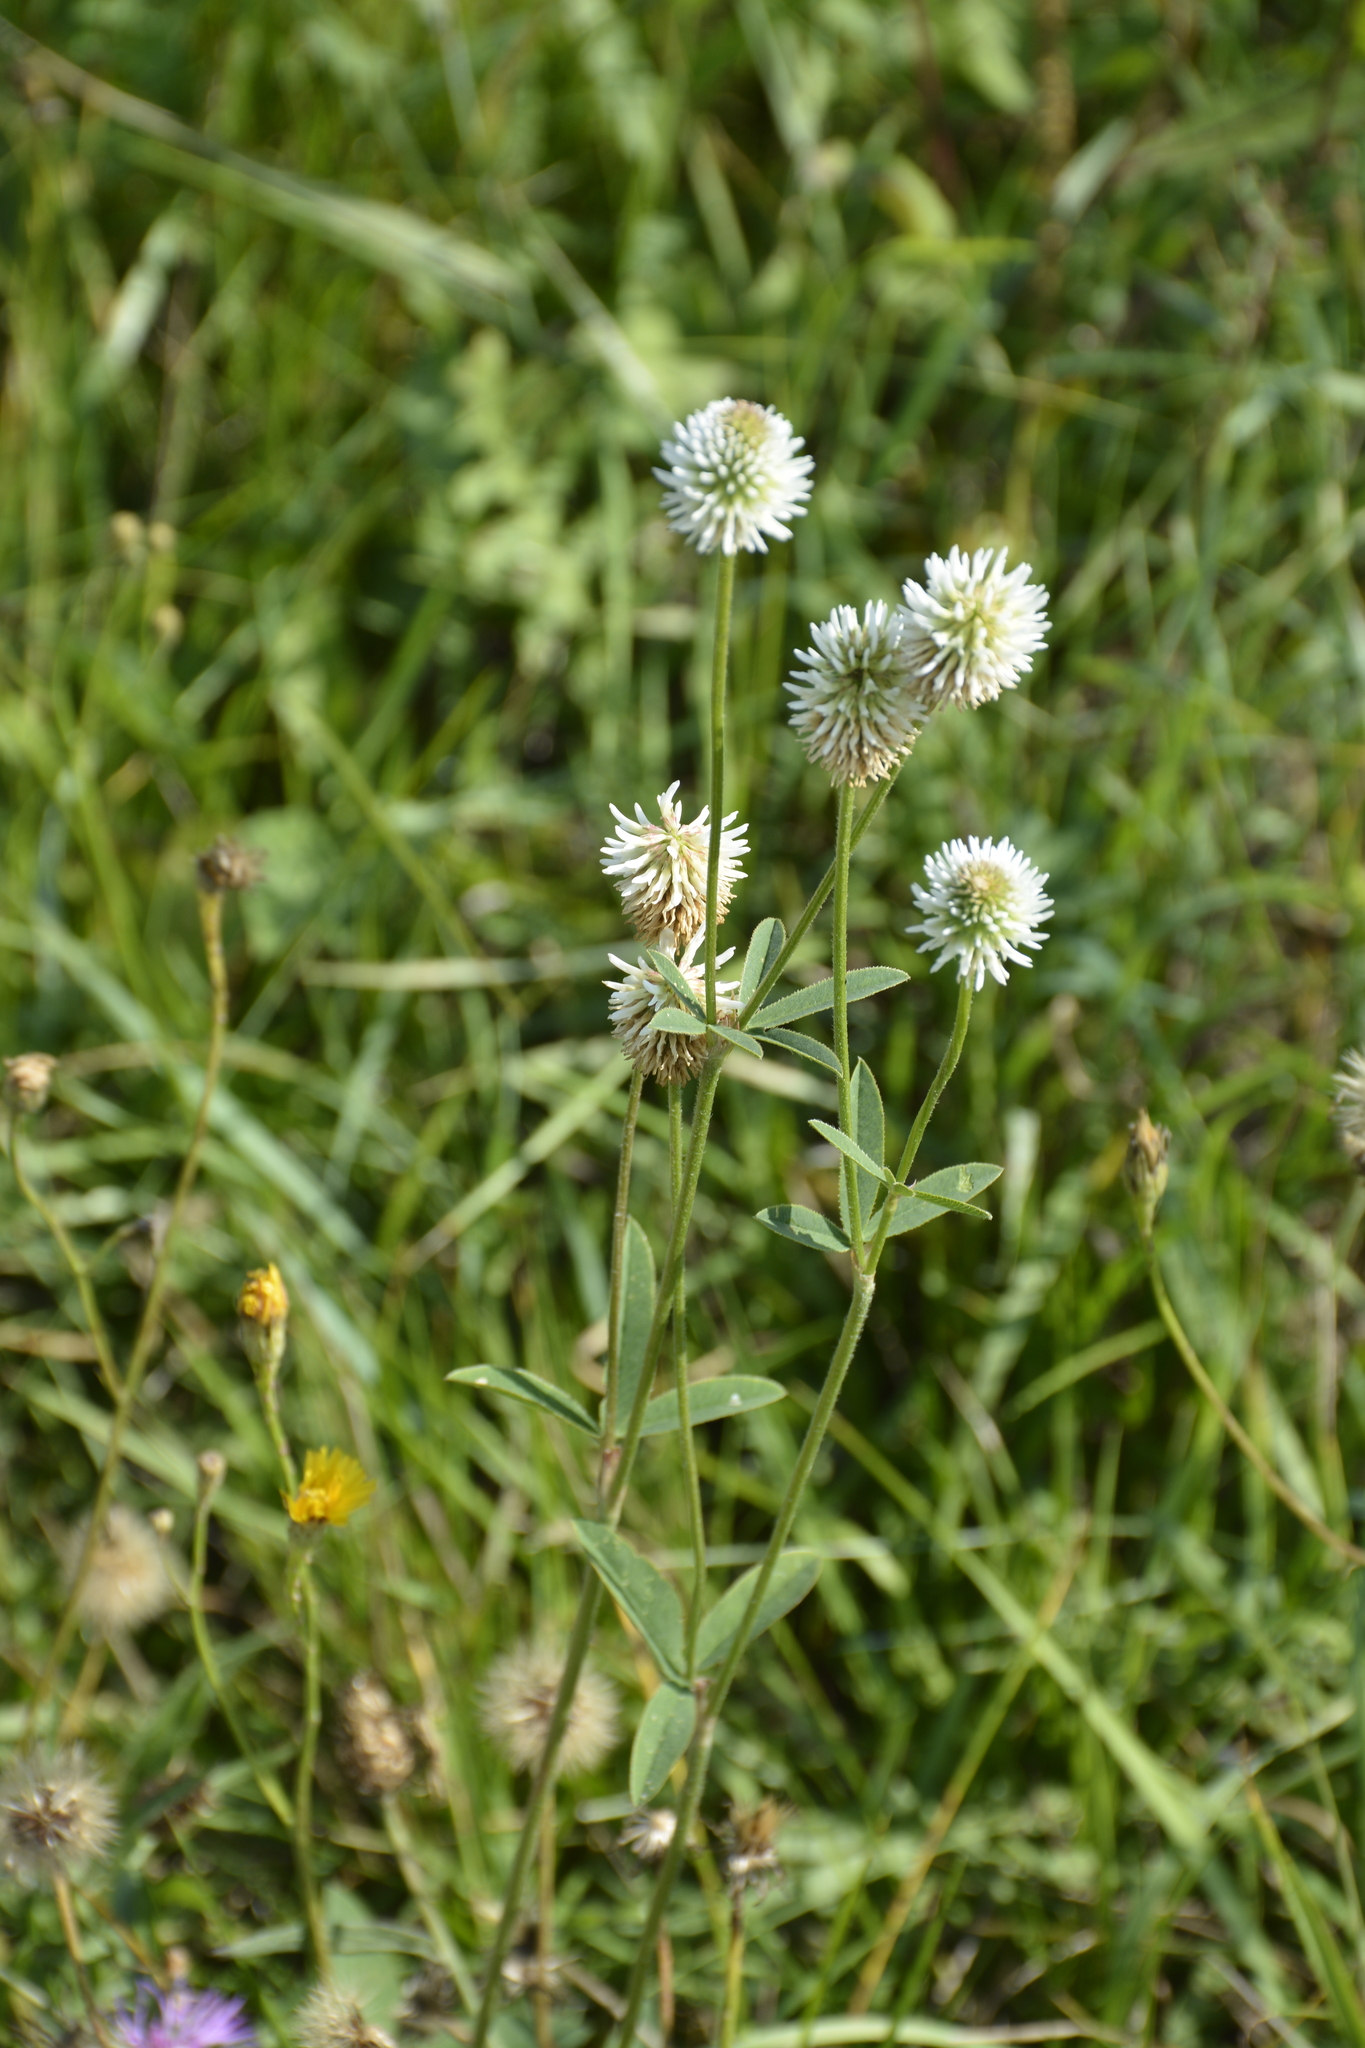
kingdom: Plantae
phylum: Tracheophyta
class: Magnoliopsida
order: Fabales
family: Fabaceae
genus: Trifolium
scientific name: Trifolium montanum
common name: Mountain clover
